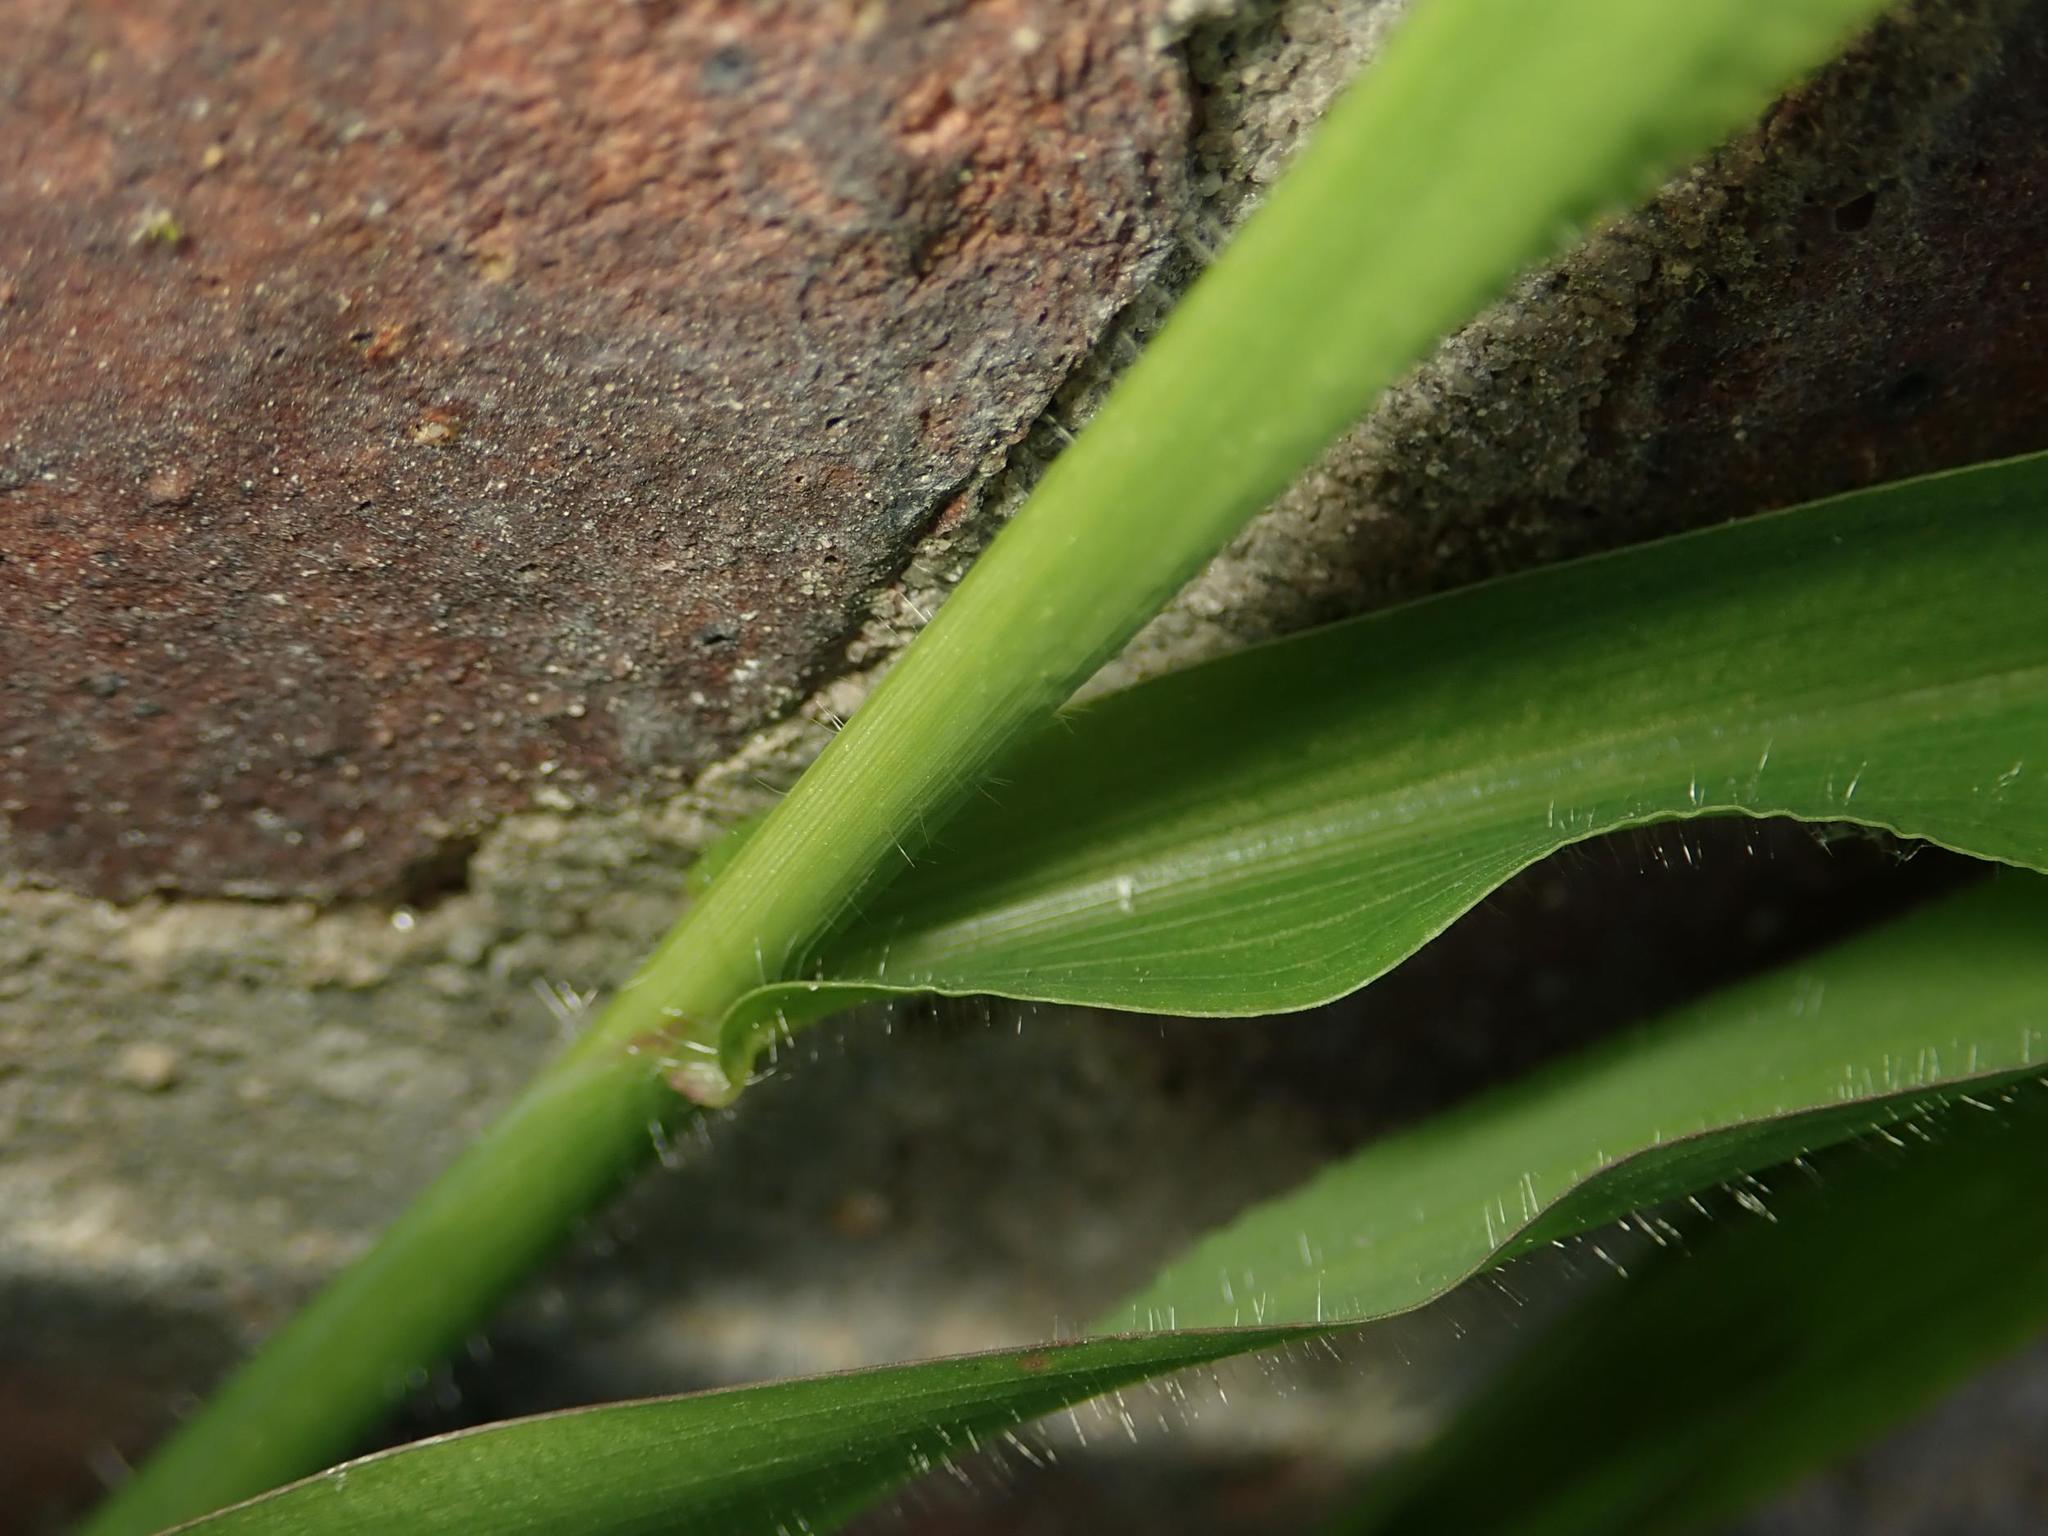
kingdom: Plantae
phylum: Tracheophyta
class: Liliopsida
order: Poales
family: Poaceae
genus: Digitaria
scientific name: Digitaria sanguinalis
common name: Hairy crabgrass
